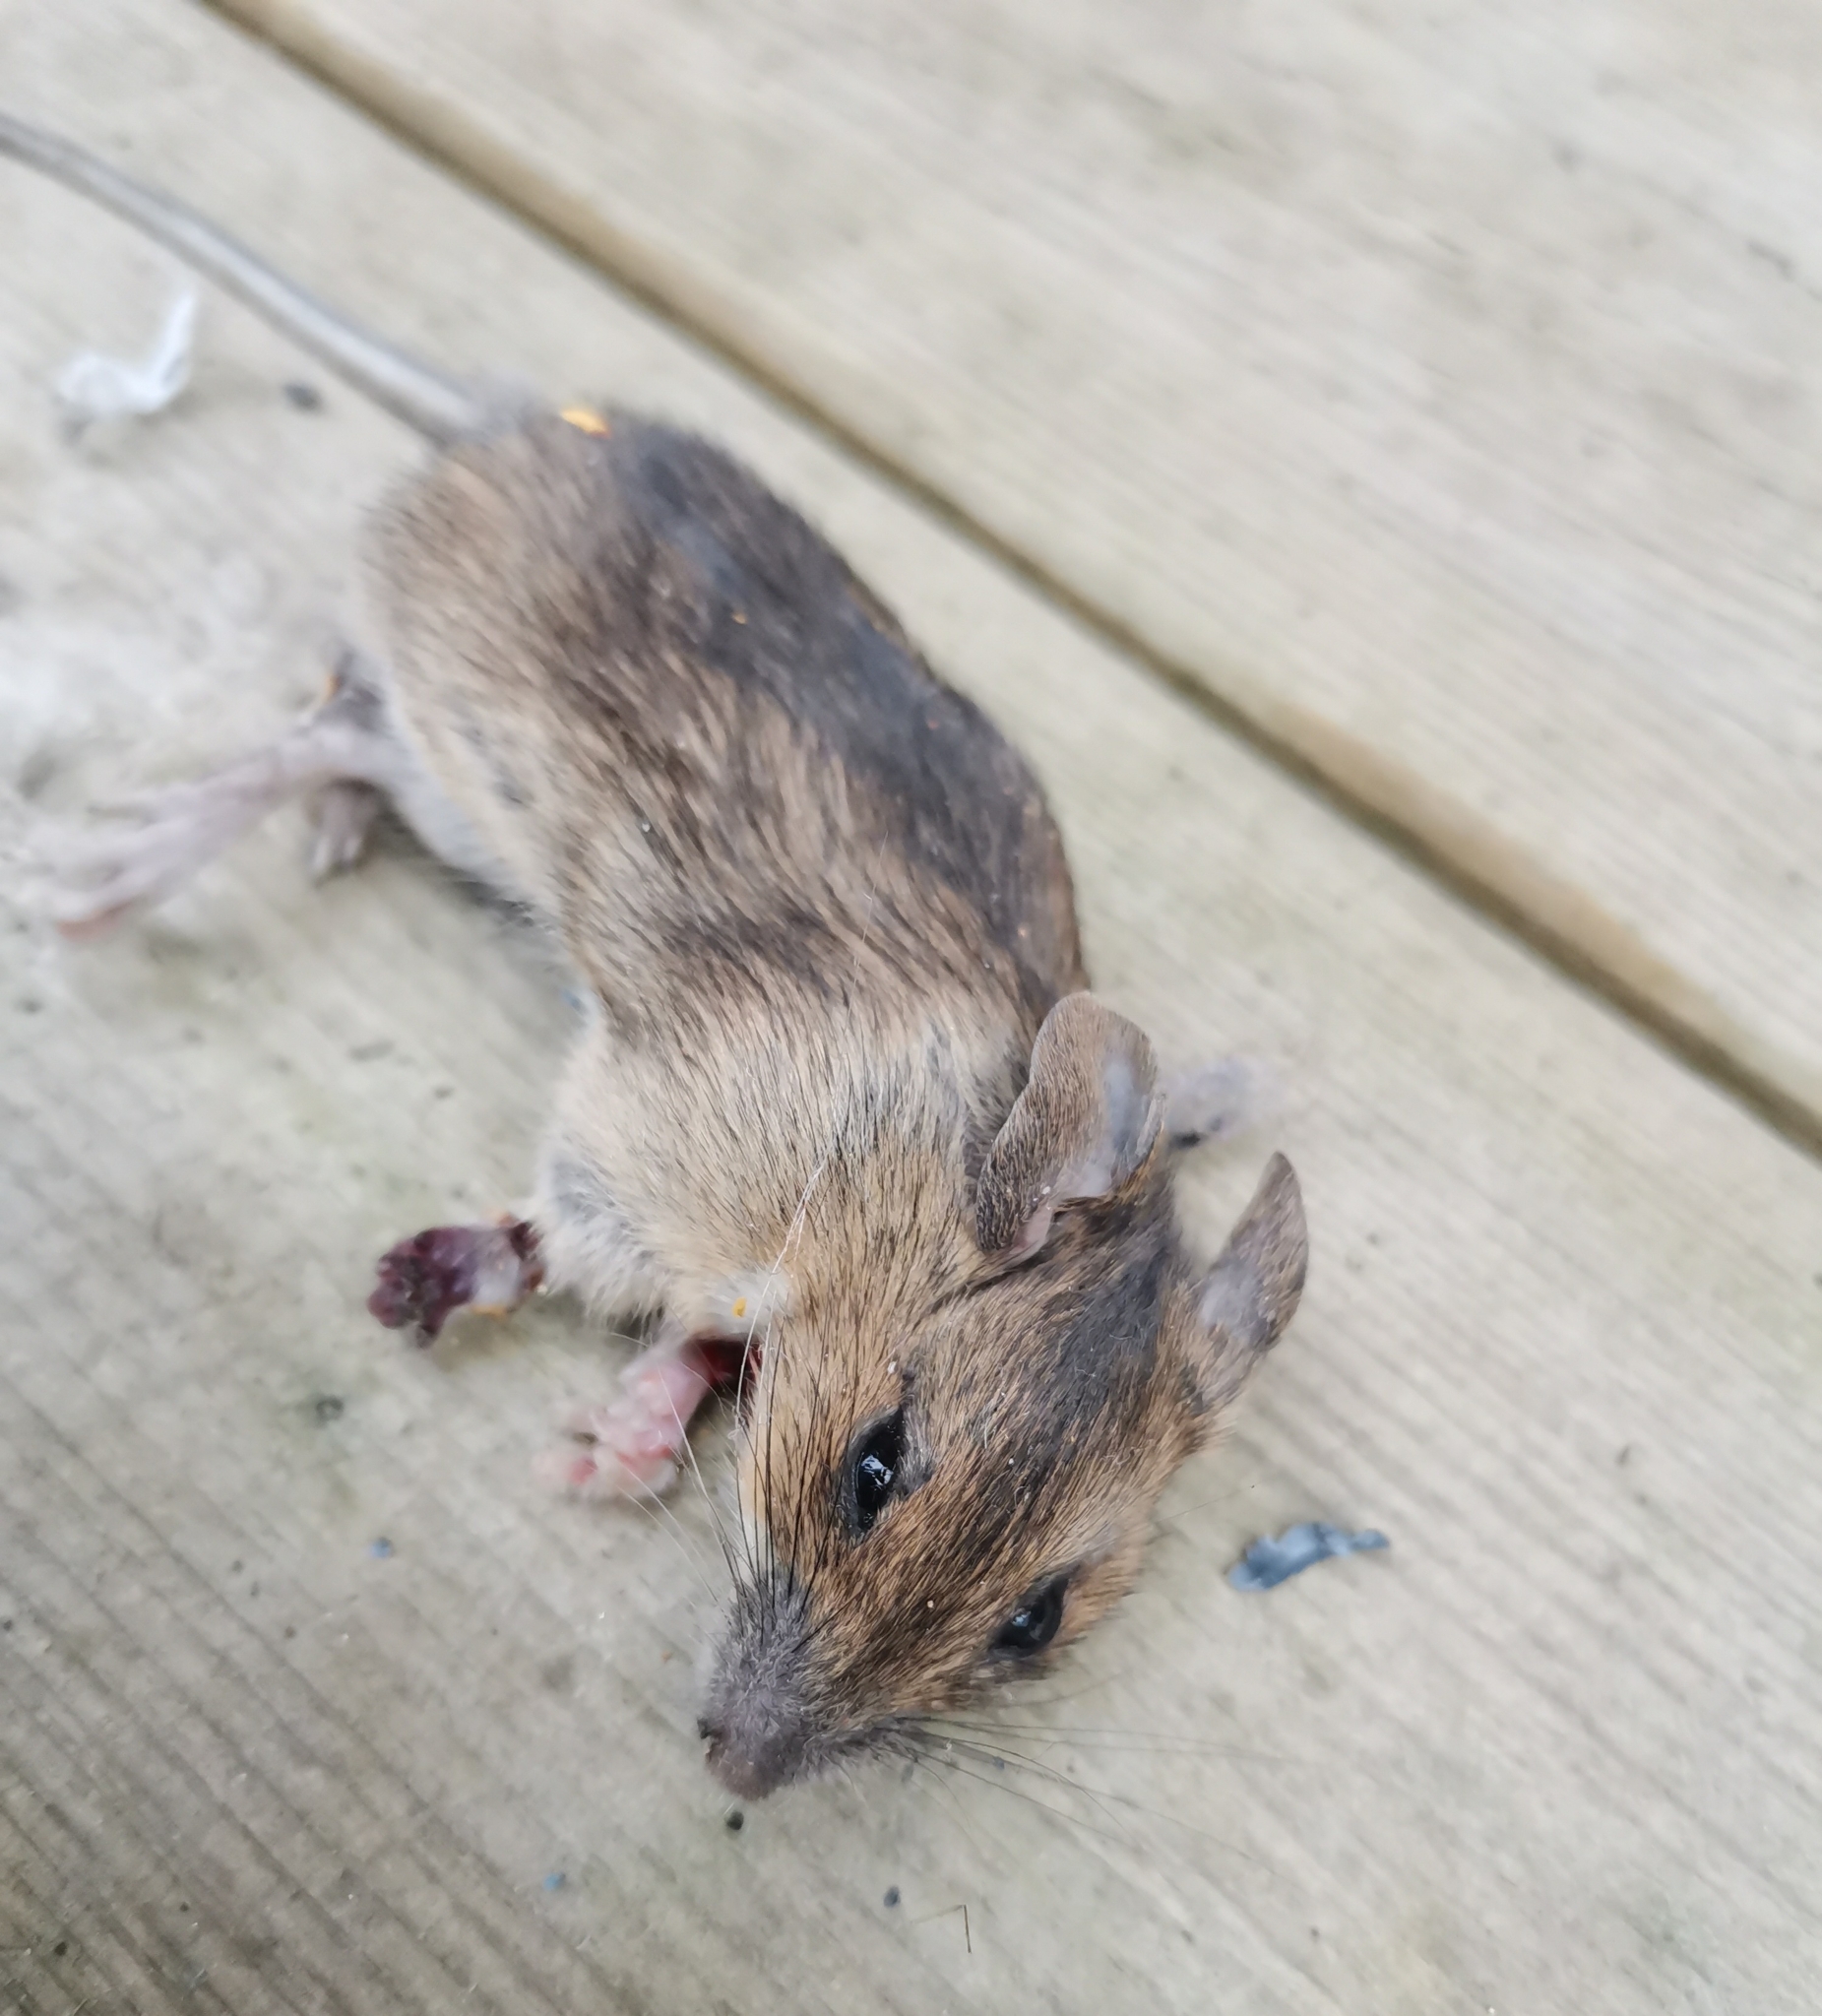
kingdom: Animalia
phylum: Chordata
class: Mammalia
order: Rodentia
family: Muridae
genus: Apodemus
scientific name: Apodemus flavicollis
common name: Yellow-necked field mouse
